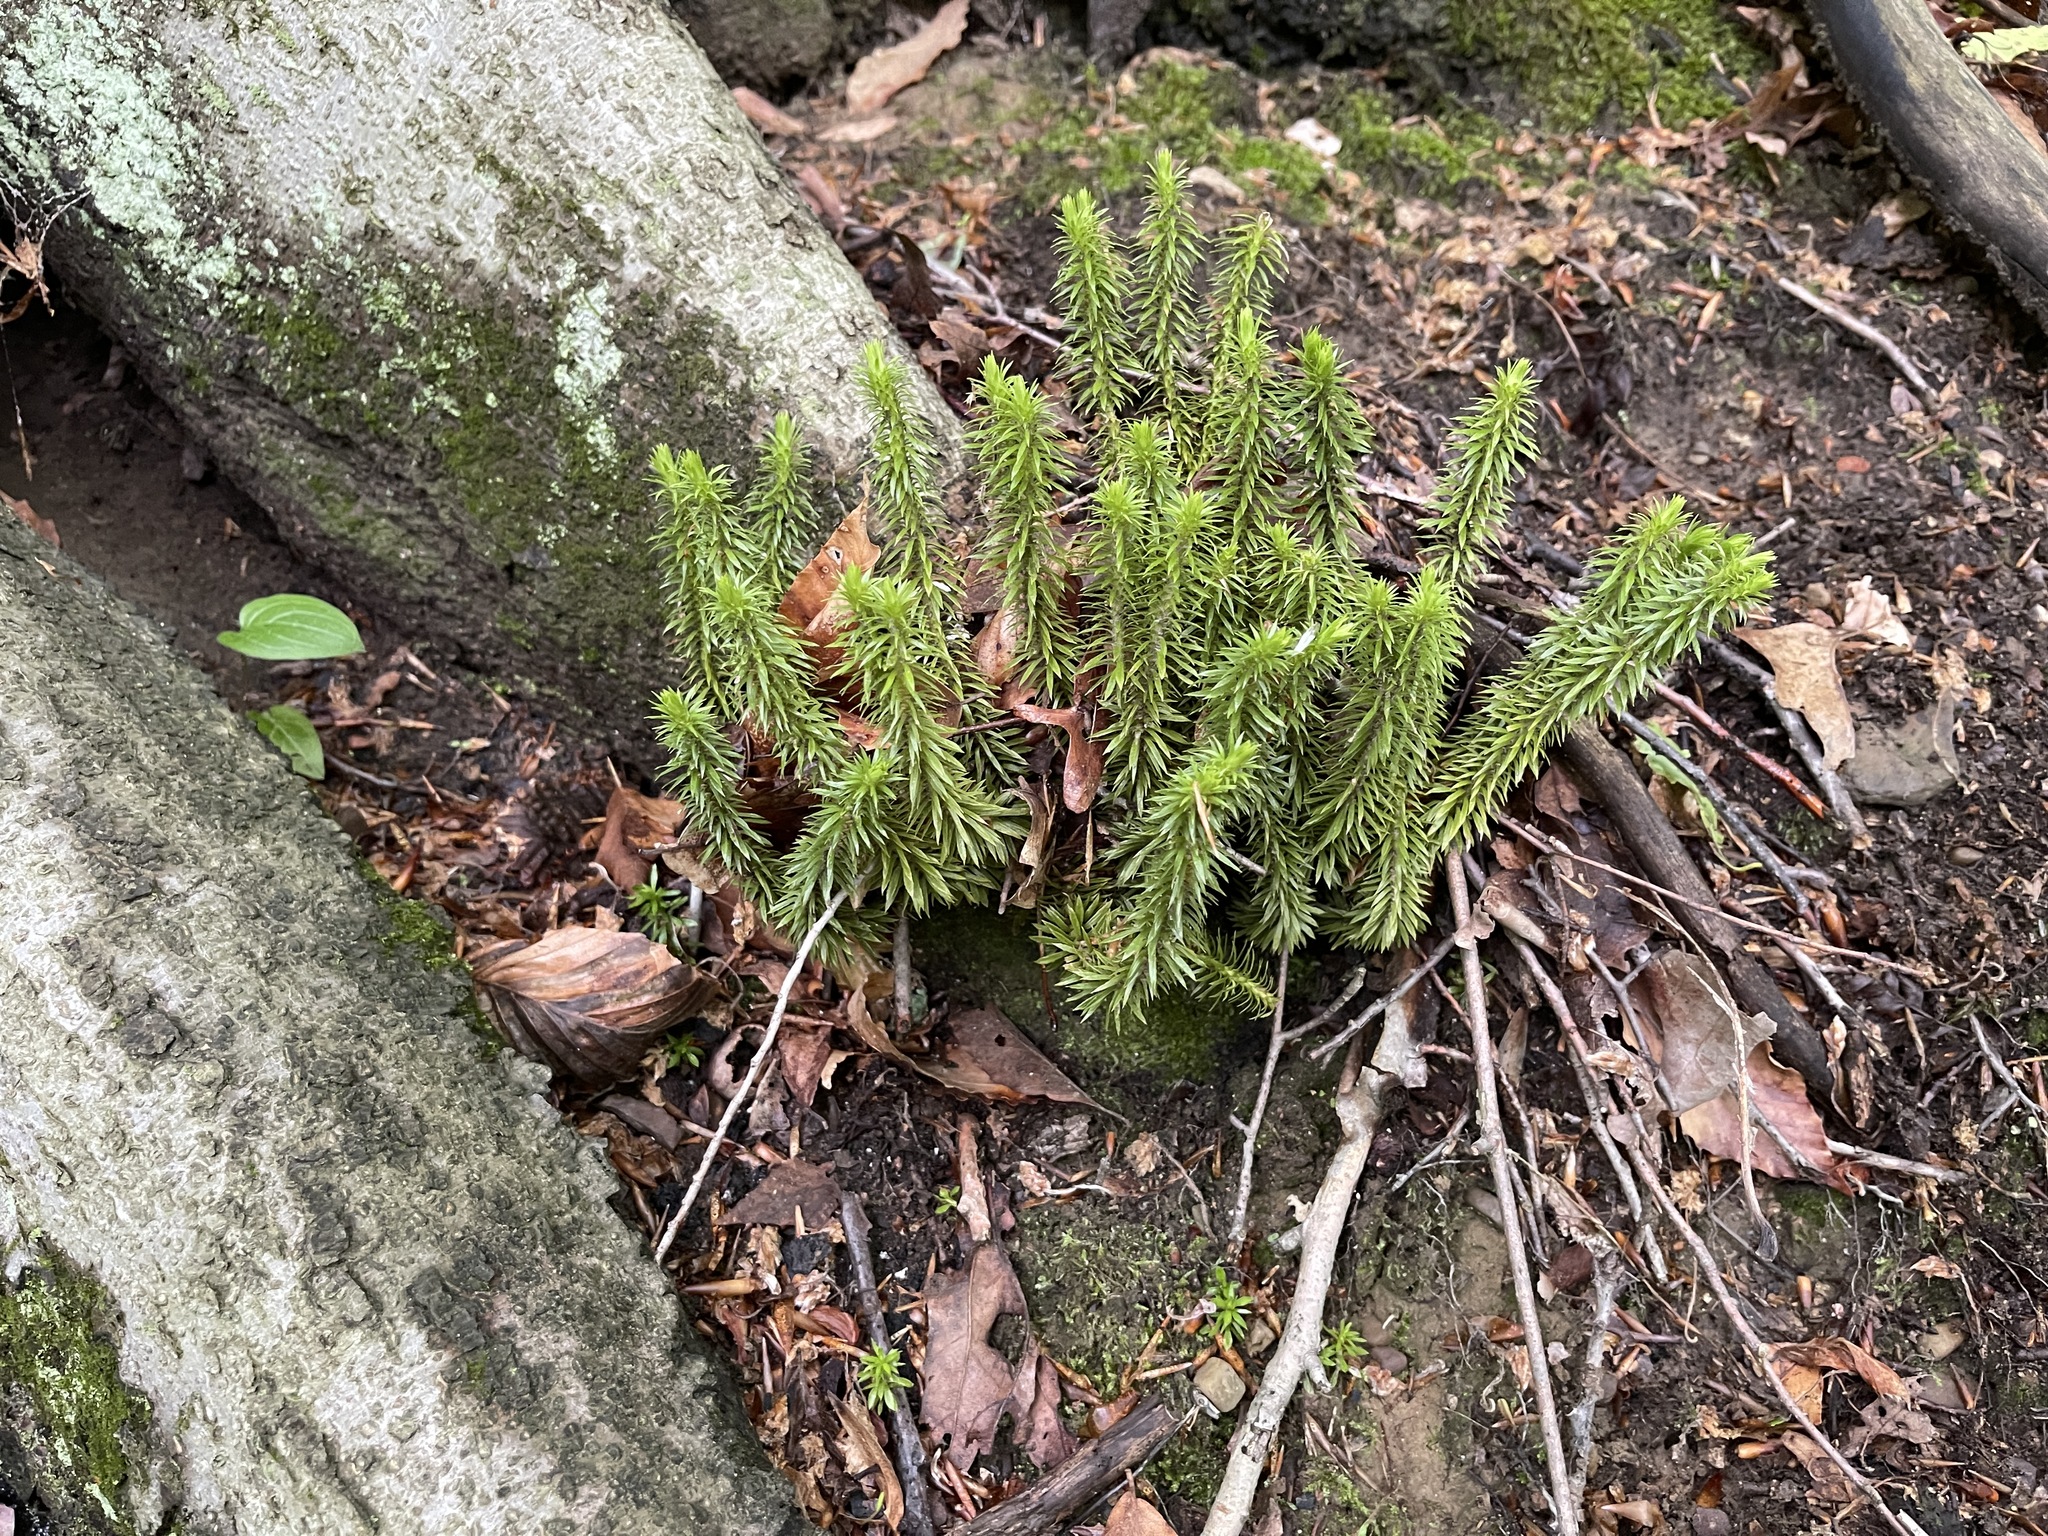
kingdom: Plantae
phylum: Tracheophyta
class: Lycopodiopsida
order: Lycopodiales
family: Lycopodiaceae
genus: Huperzia
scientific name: Huperzia lucidula
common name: Shining clubmoss
